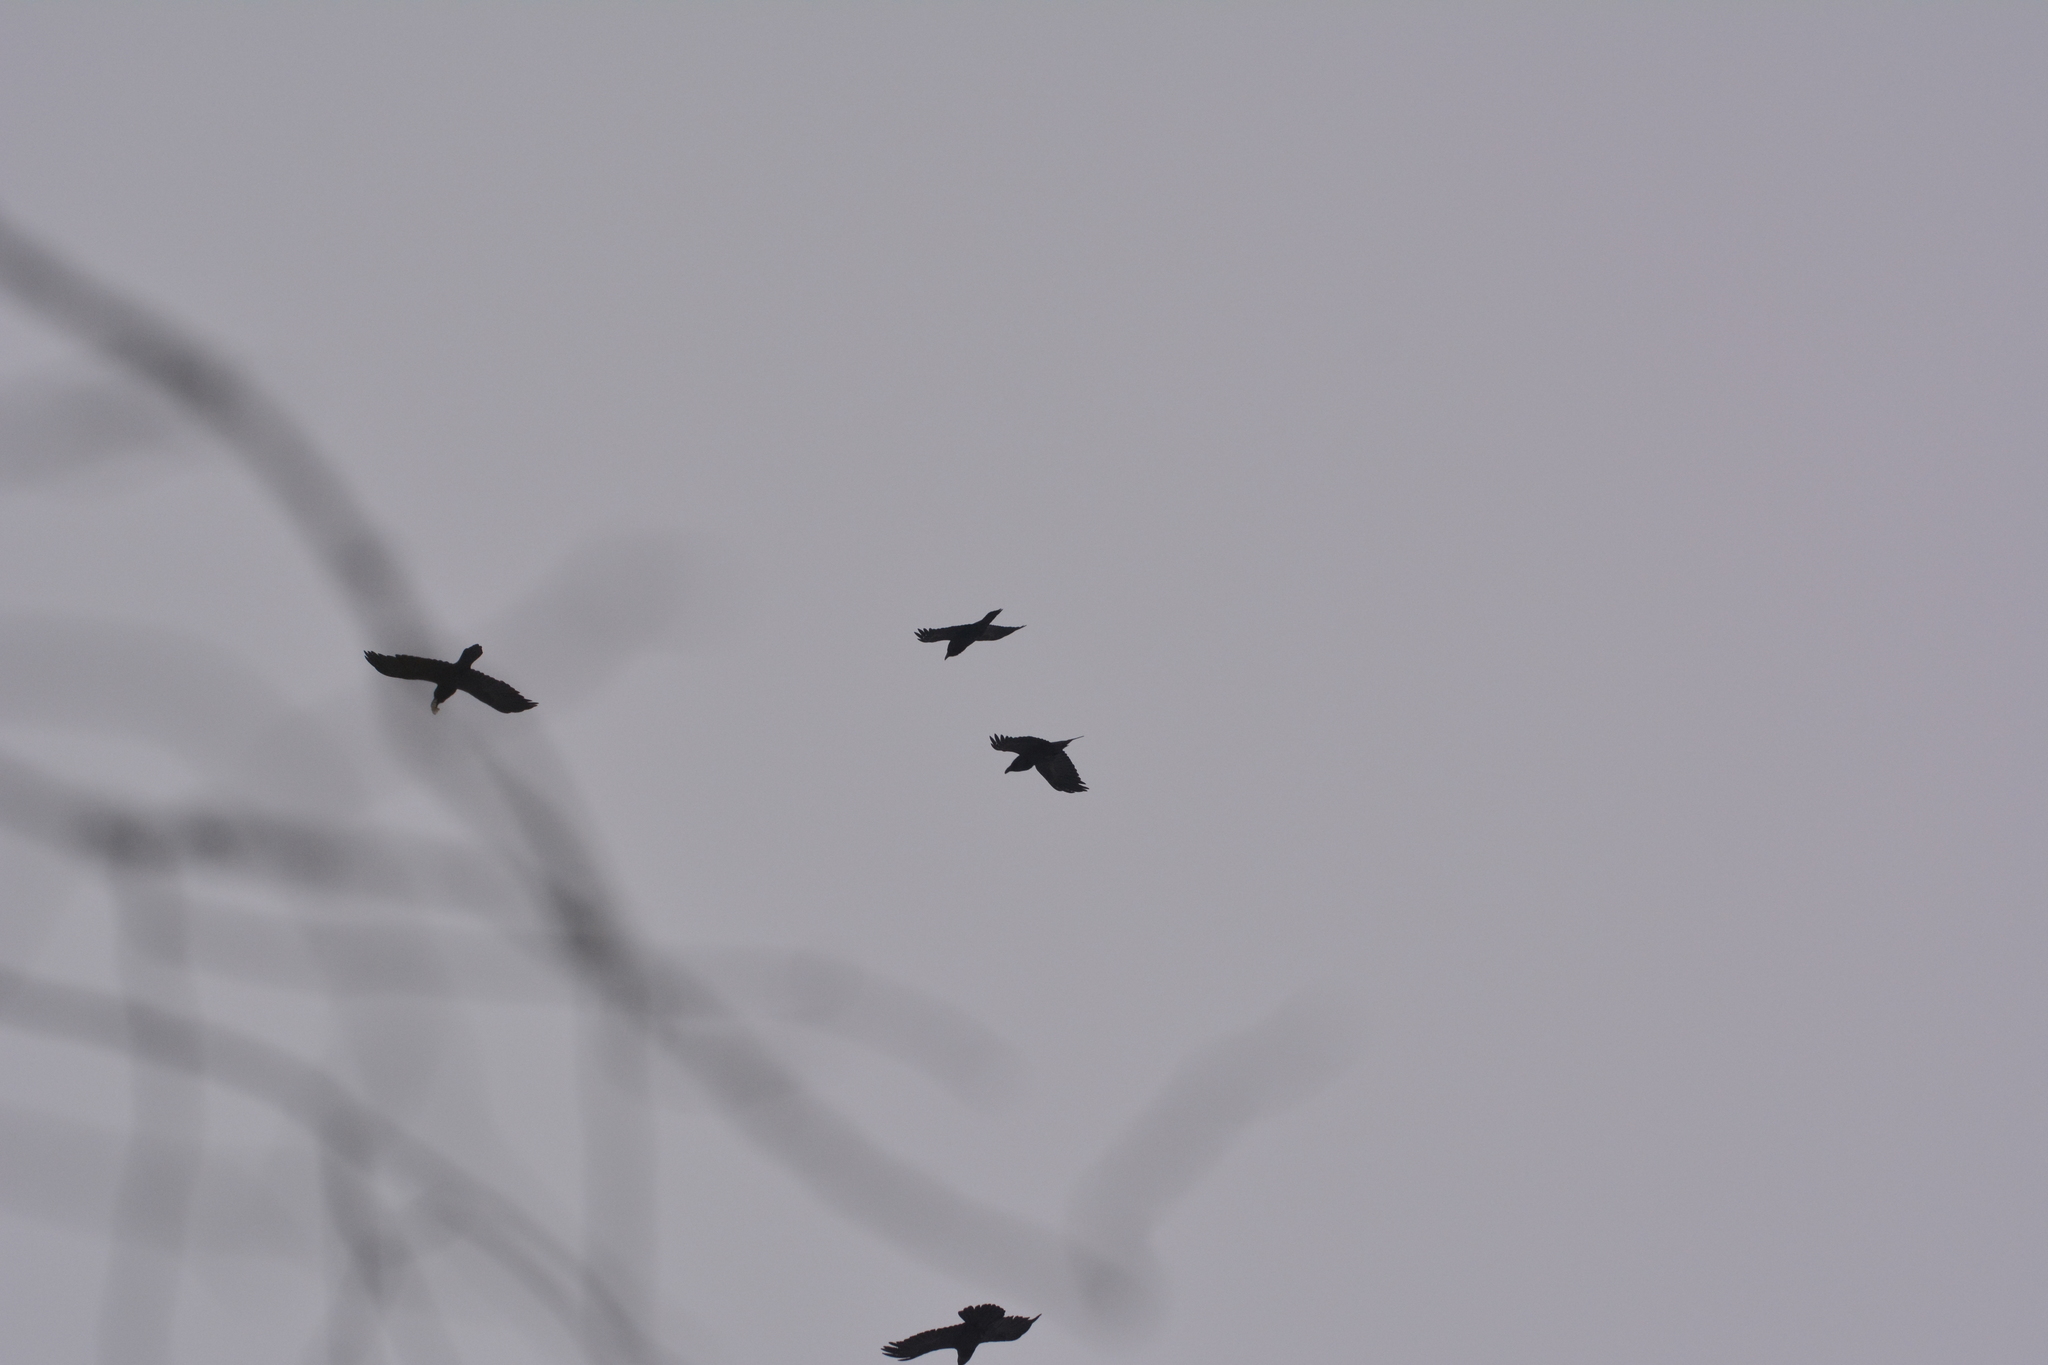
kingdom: Animalia
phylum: Chordata
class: Aves
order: Passeriformes
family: Corvidae
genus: Corvus
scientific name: Corvus corax
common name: Common raven
